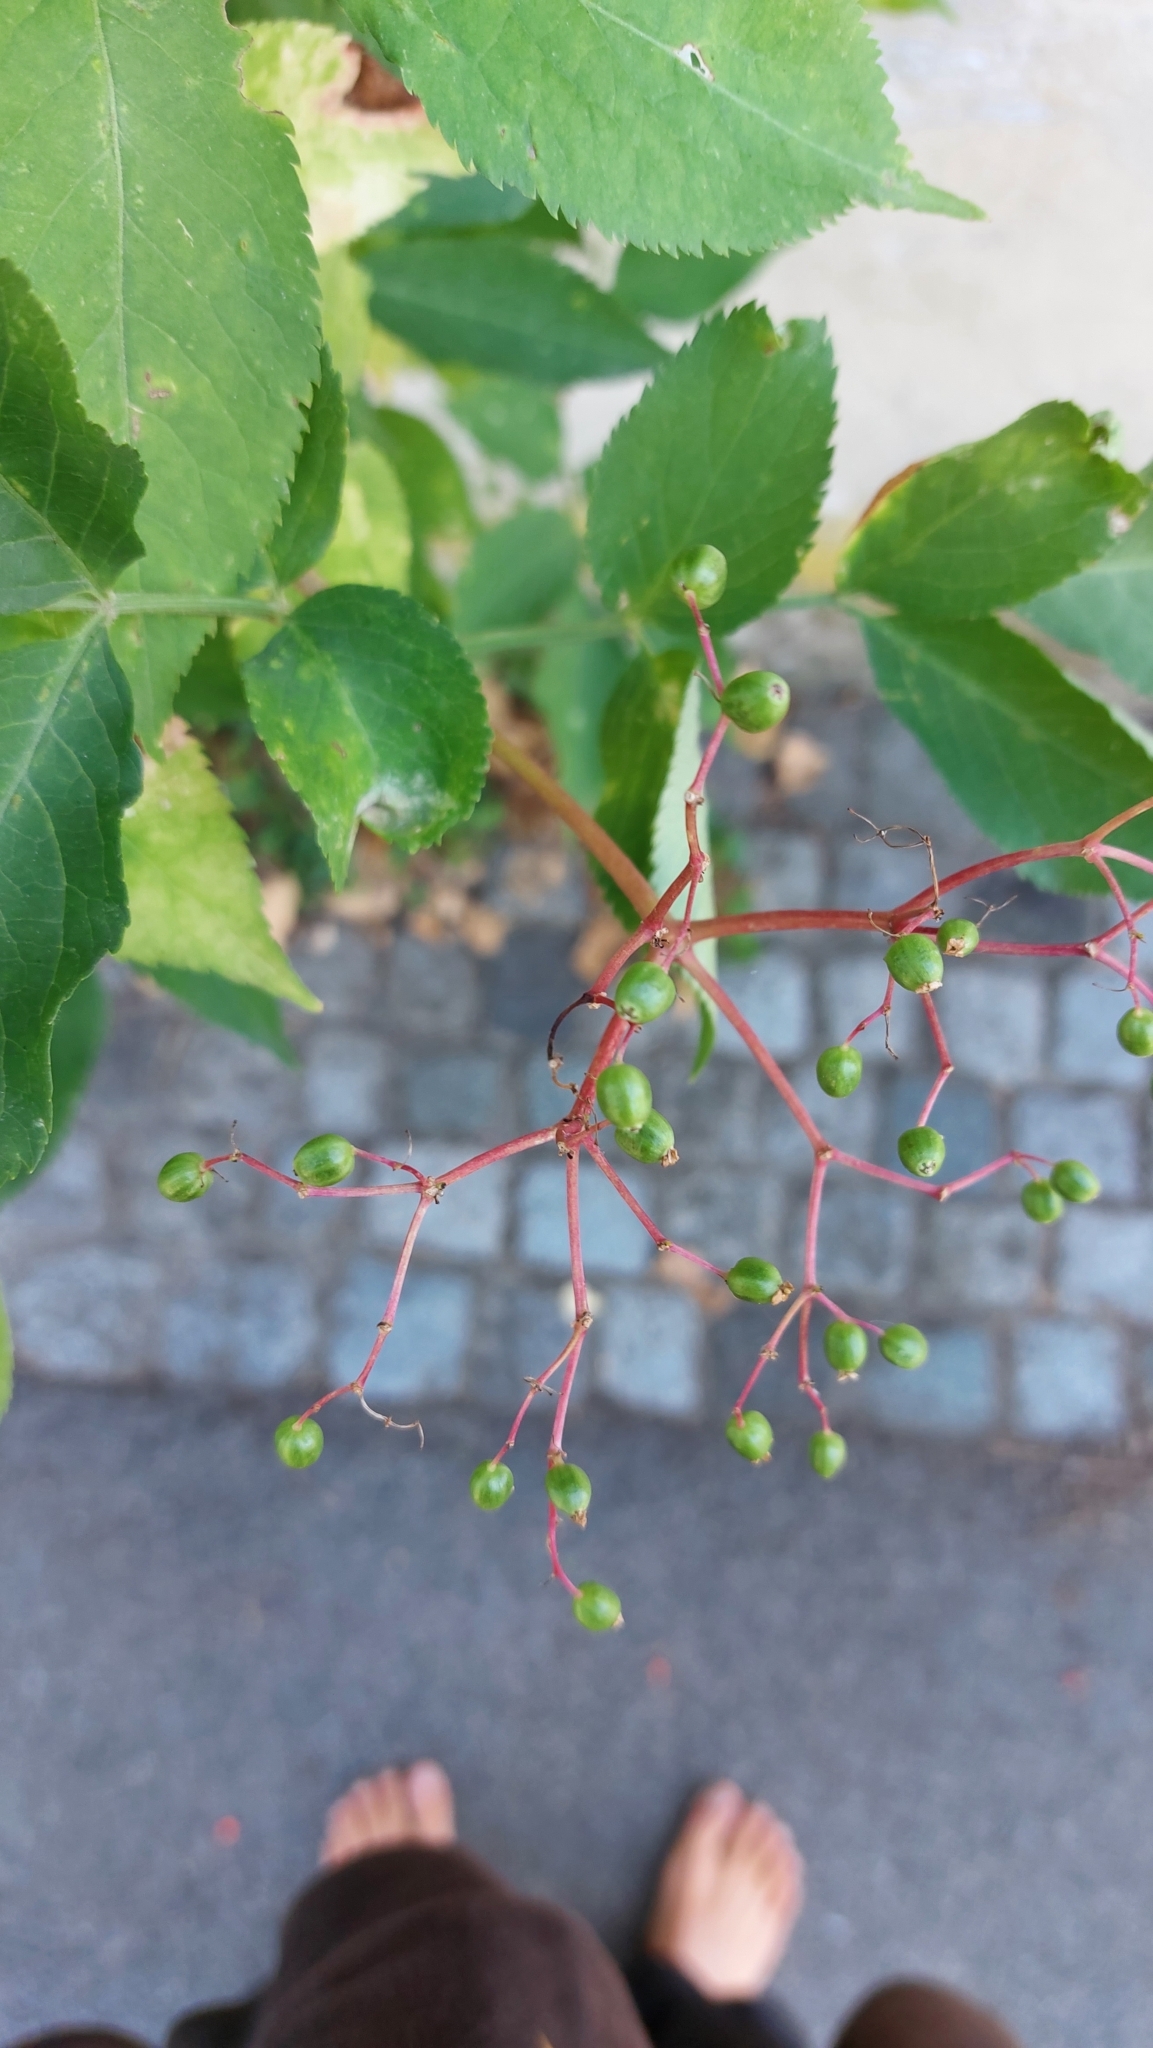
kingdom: Plantae
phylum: Tracheophyta
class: Magnoliopsida
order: Dipsacales
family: Viburnaceae
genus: Sambucus
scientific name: Sambucus nigra
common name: Elder
